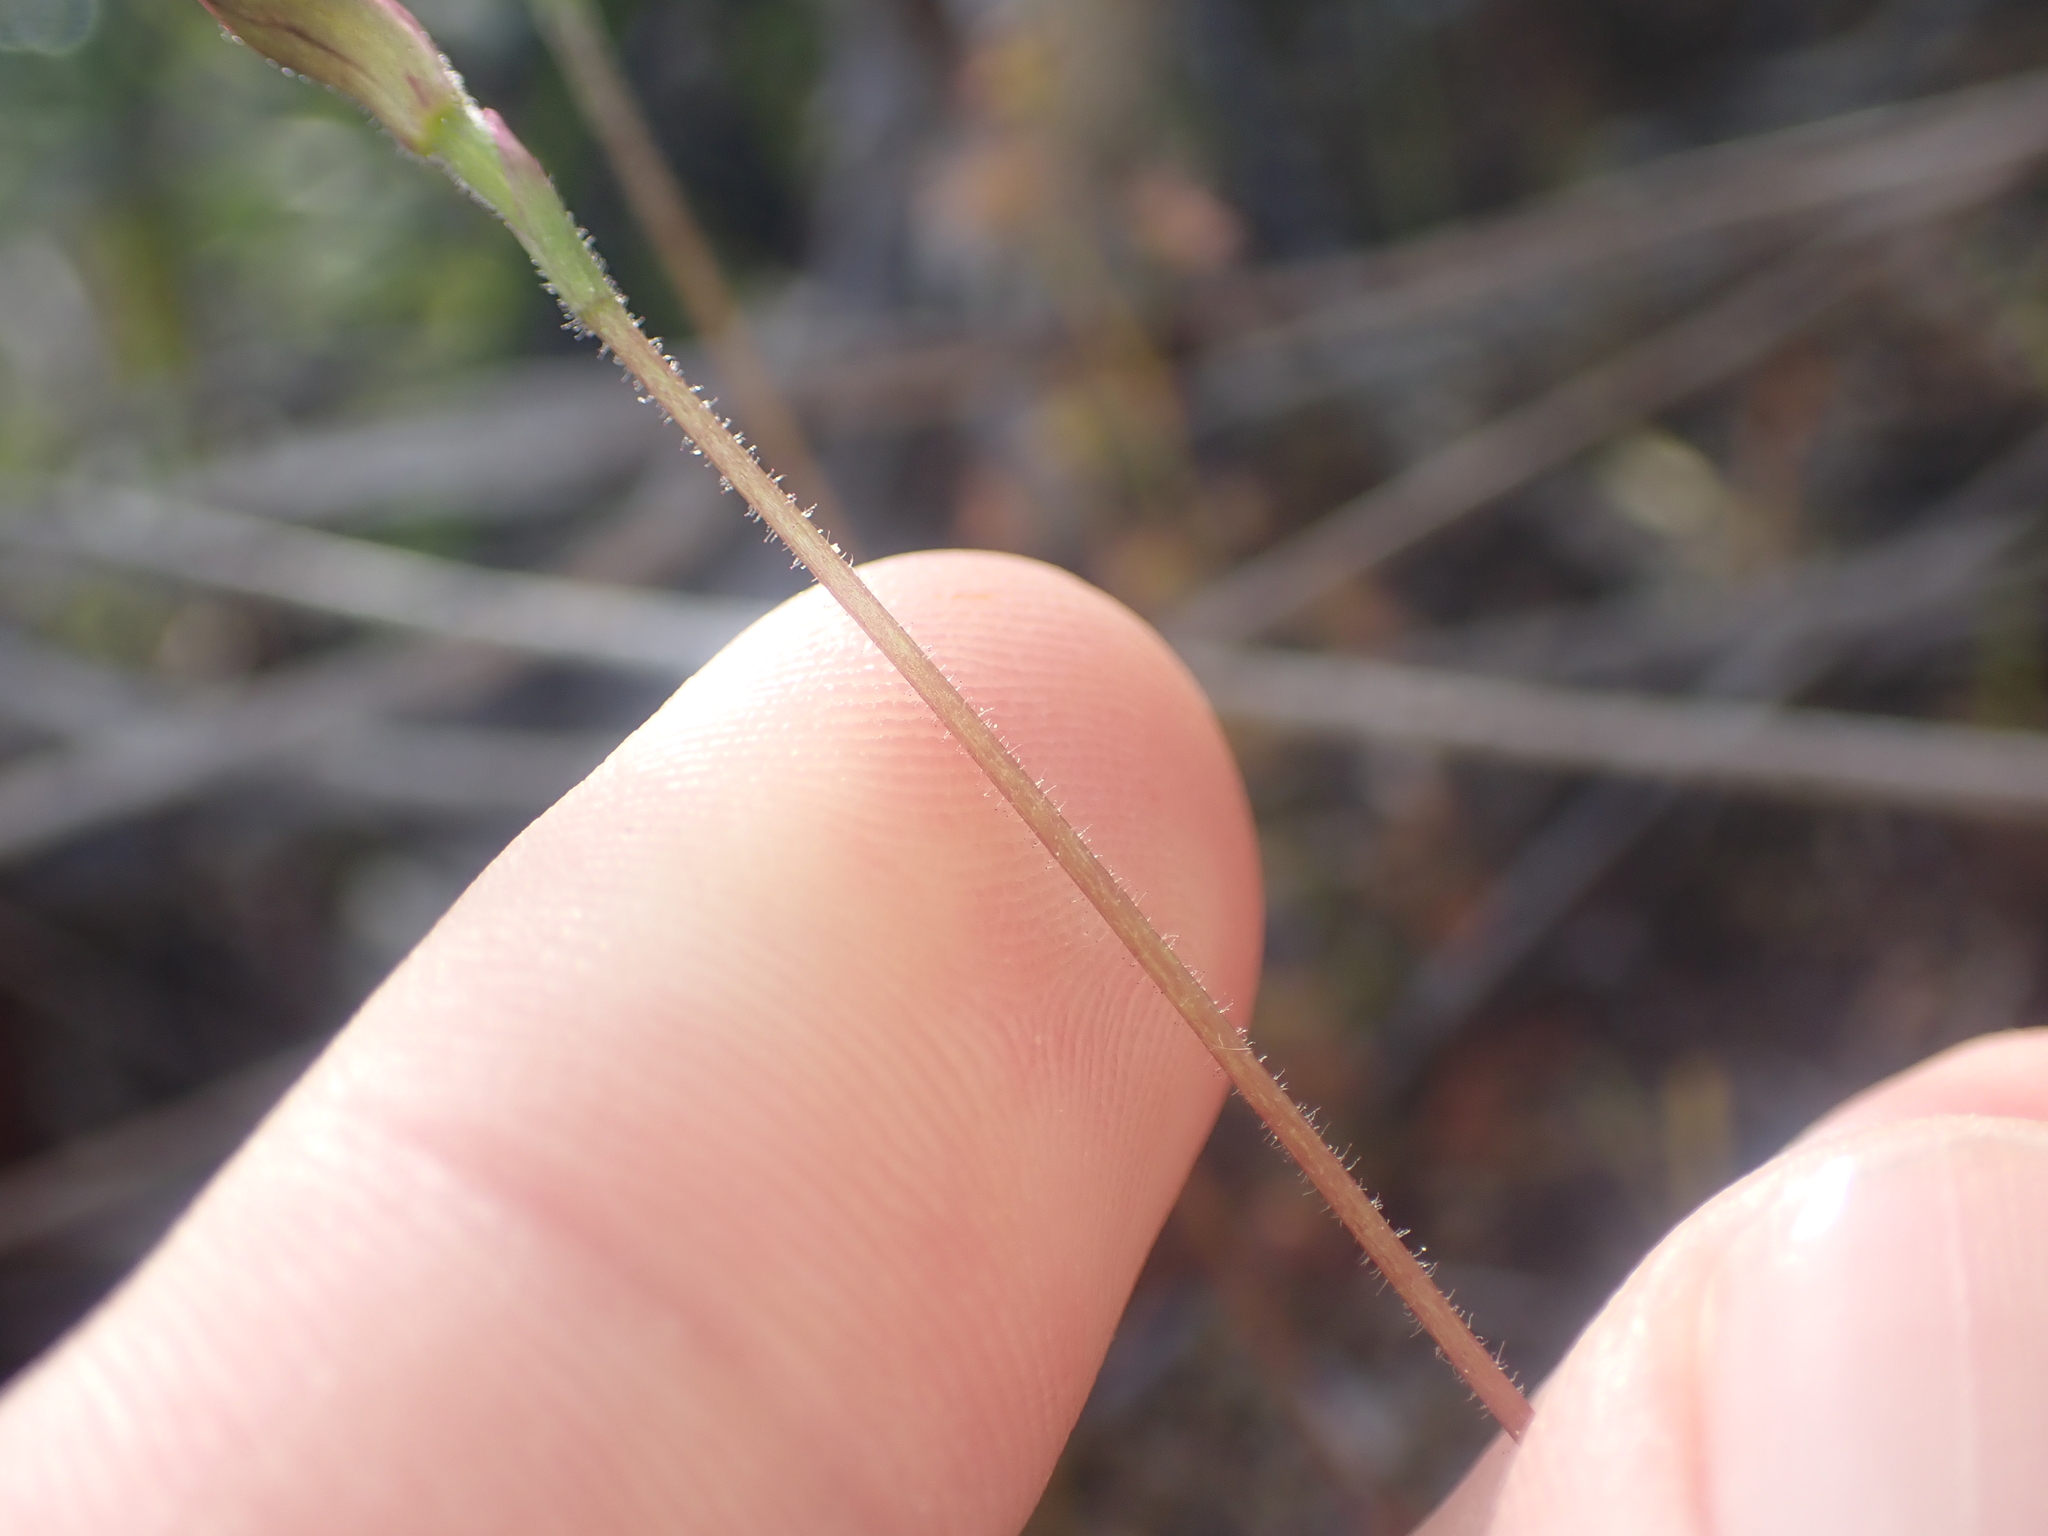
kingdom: Plantae
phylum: Tracheophyta
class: Liliopsida
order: Asparagales
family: Orchidaceae
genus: Caladenia
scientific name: Caladenia atradenia
